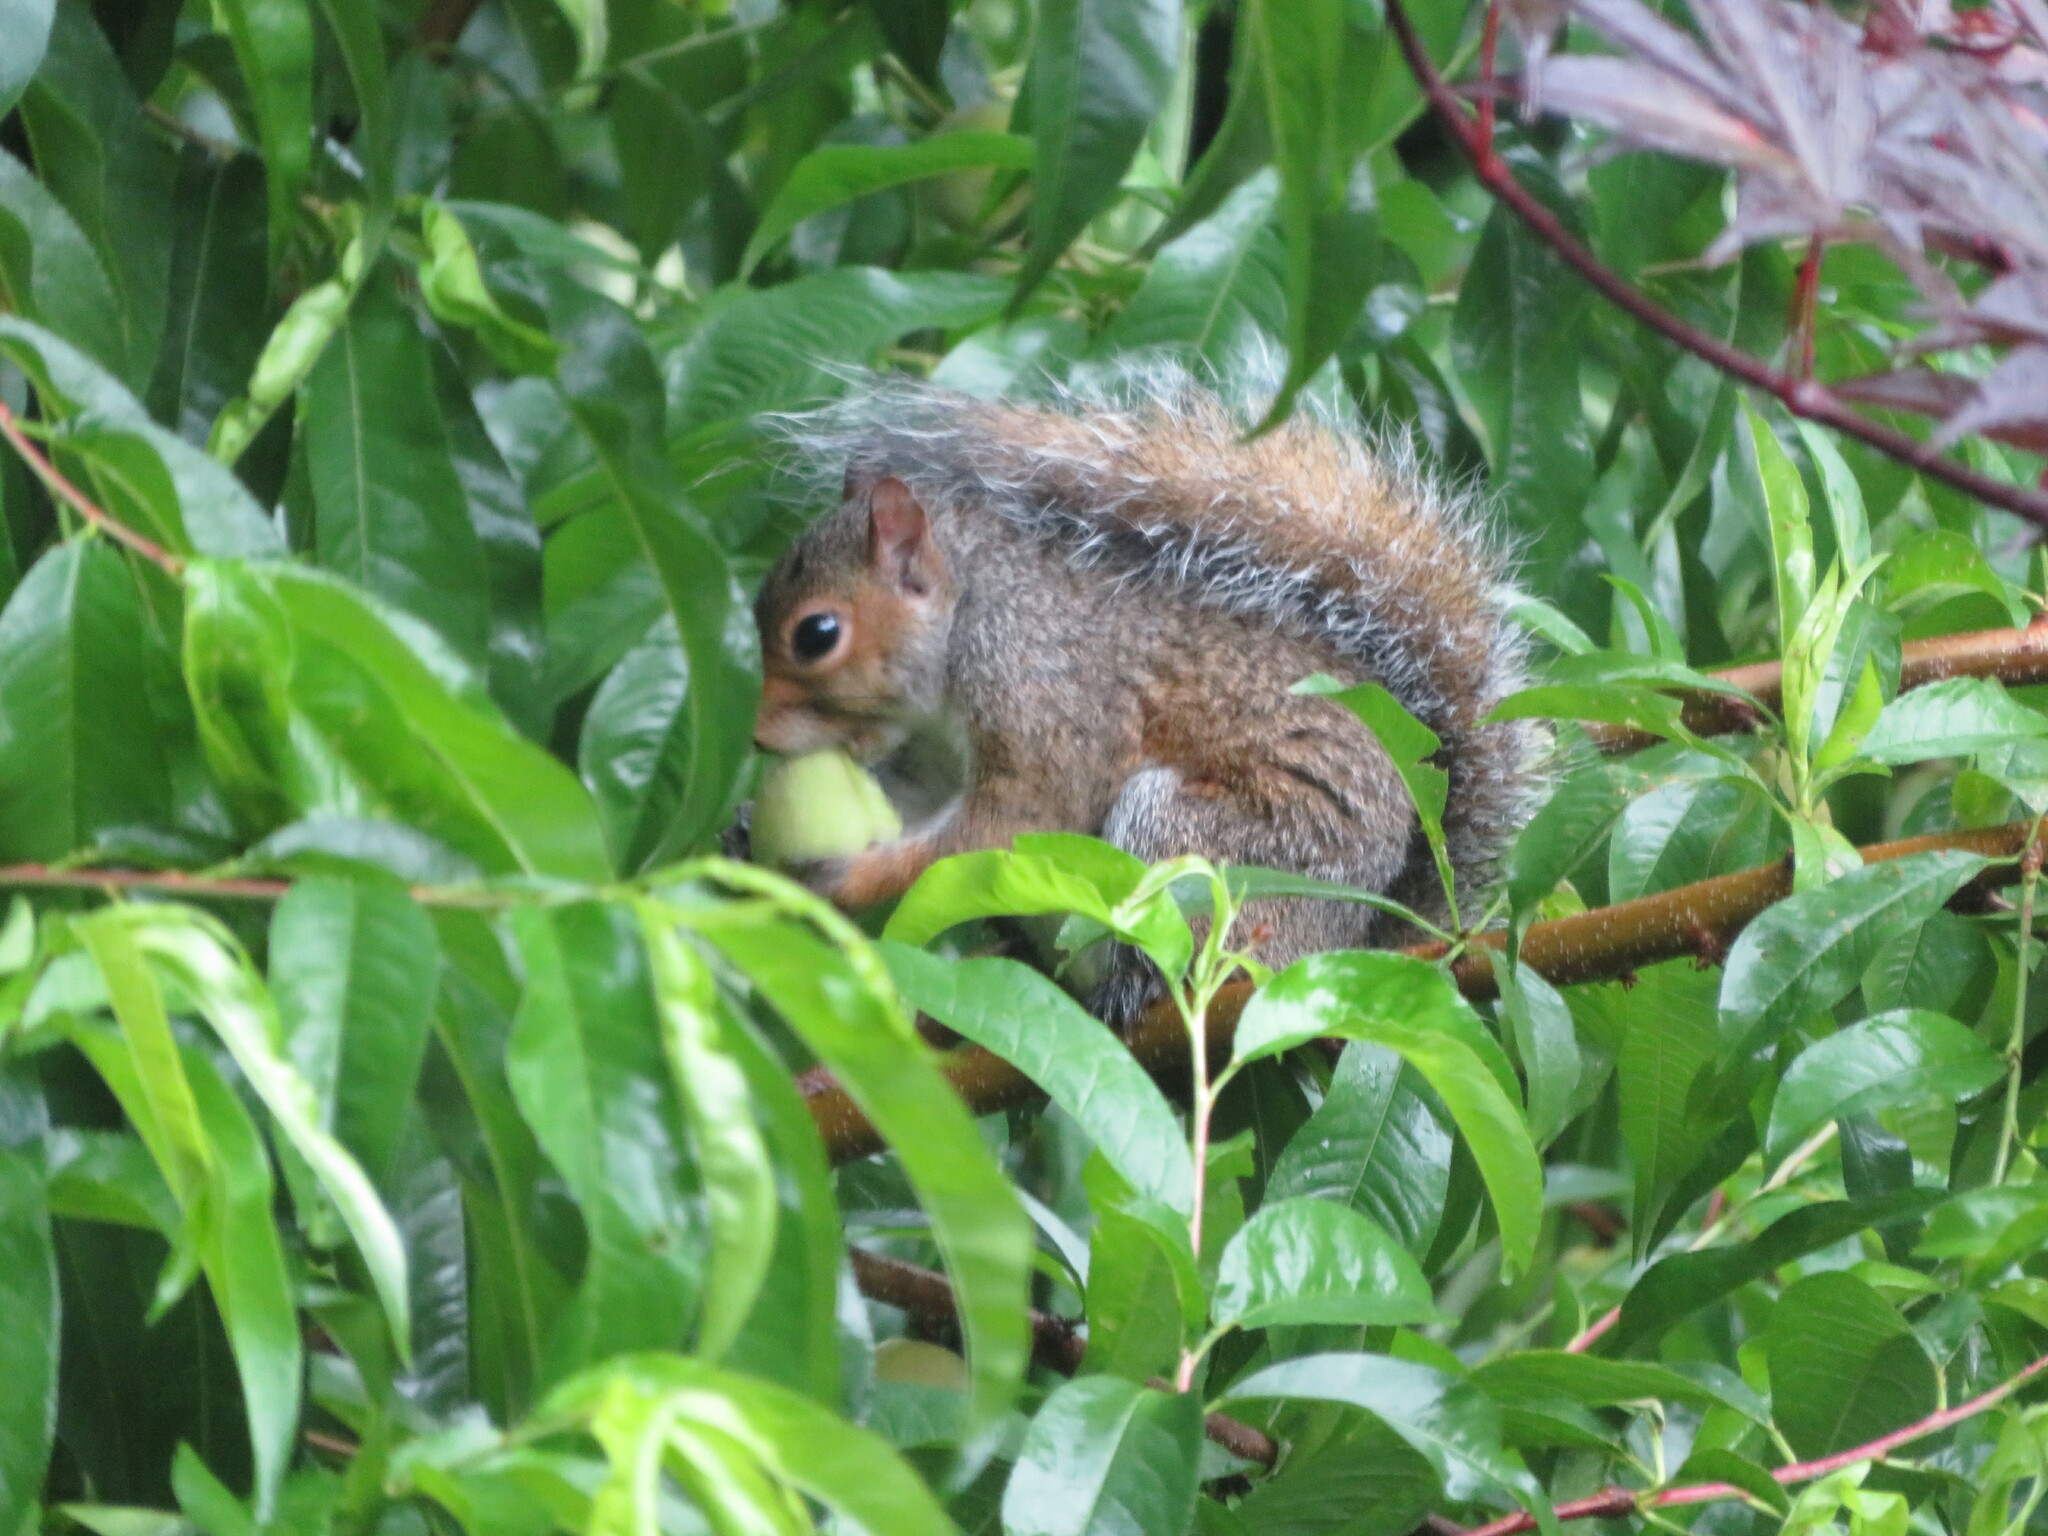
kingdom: Animalia
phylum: Chordata
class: Mammalia
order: Rodentia
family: Sciuridae
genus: Sciurus
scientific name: Sciurus carolinensis
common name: Eastern gray squirrel
